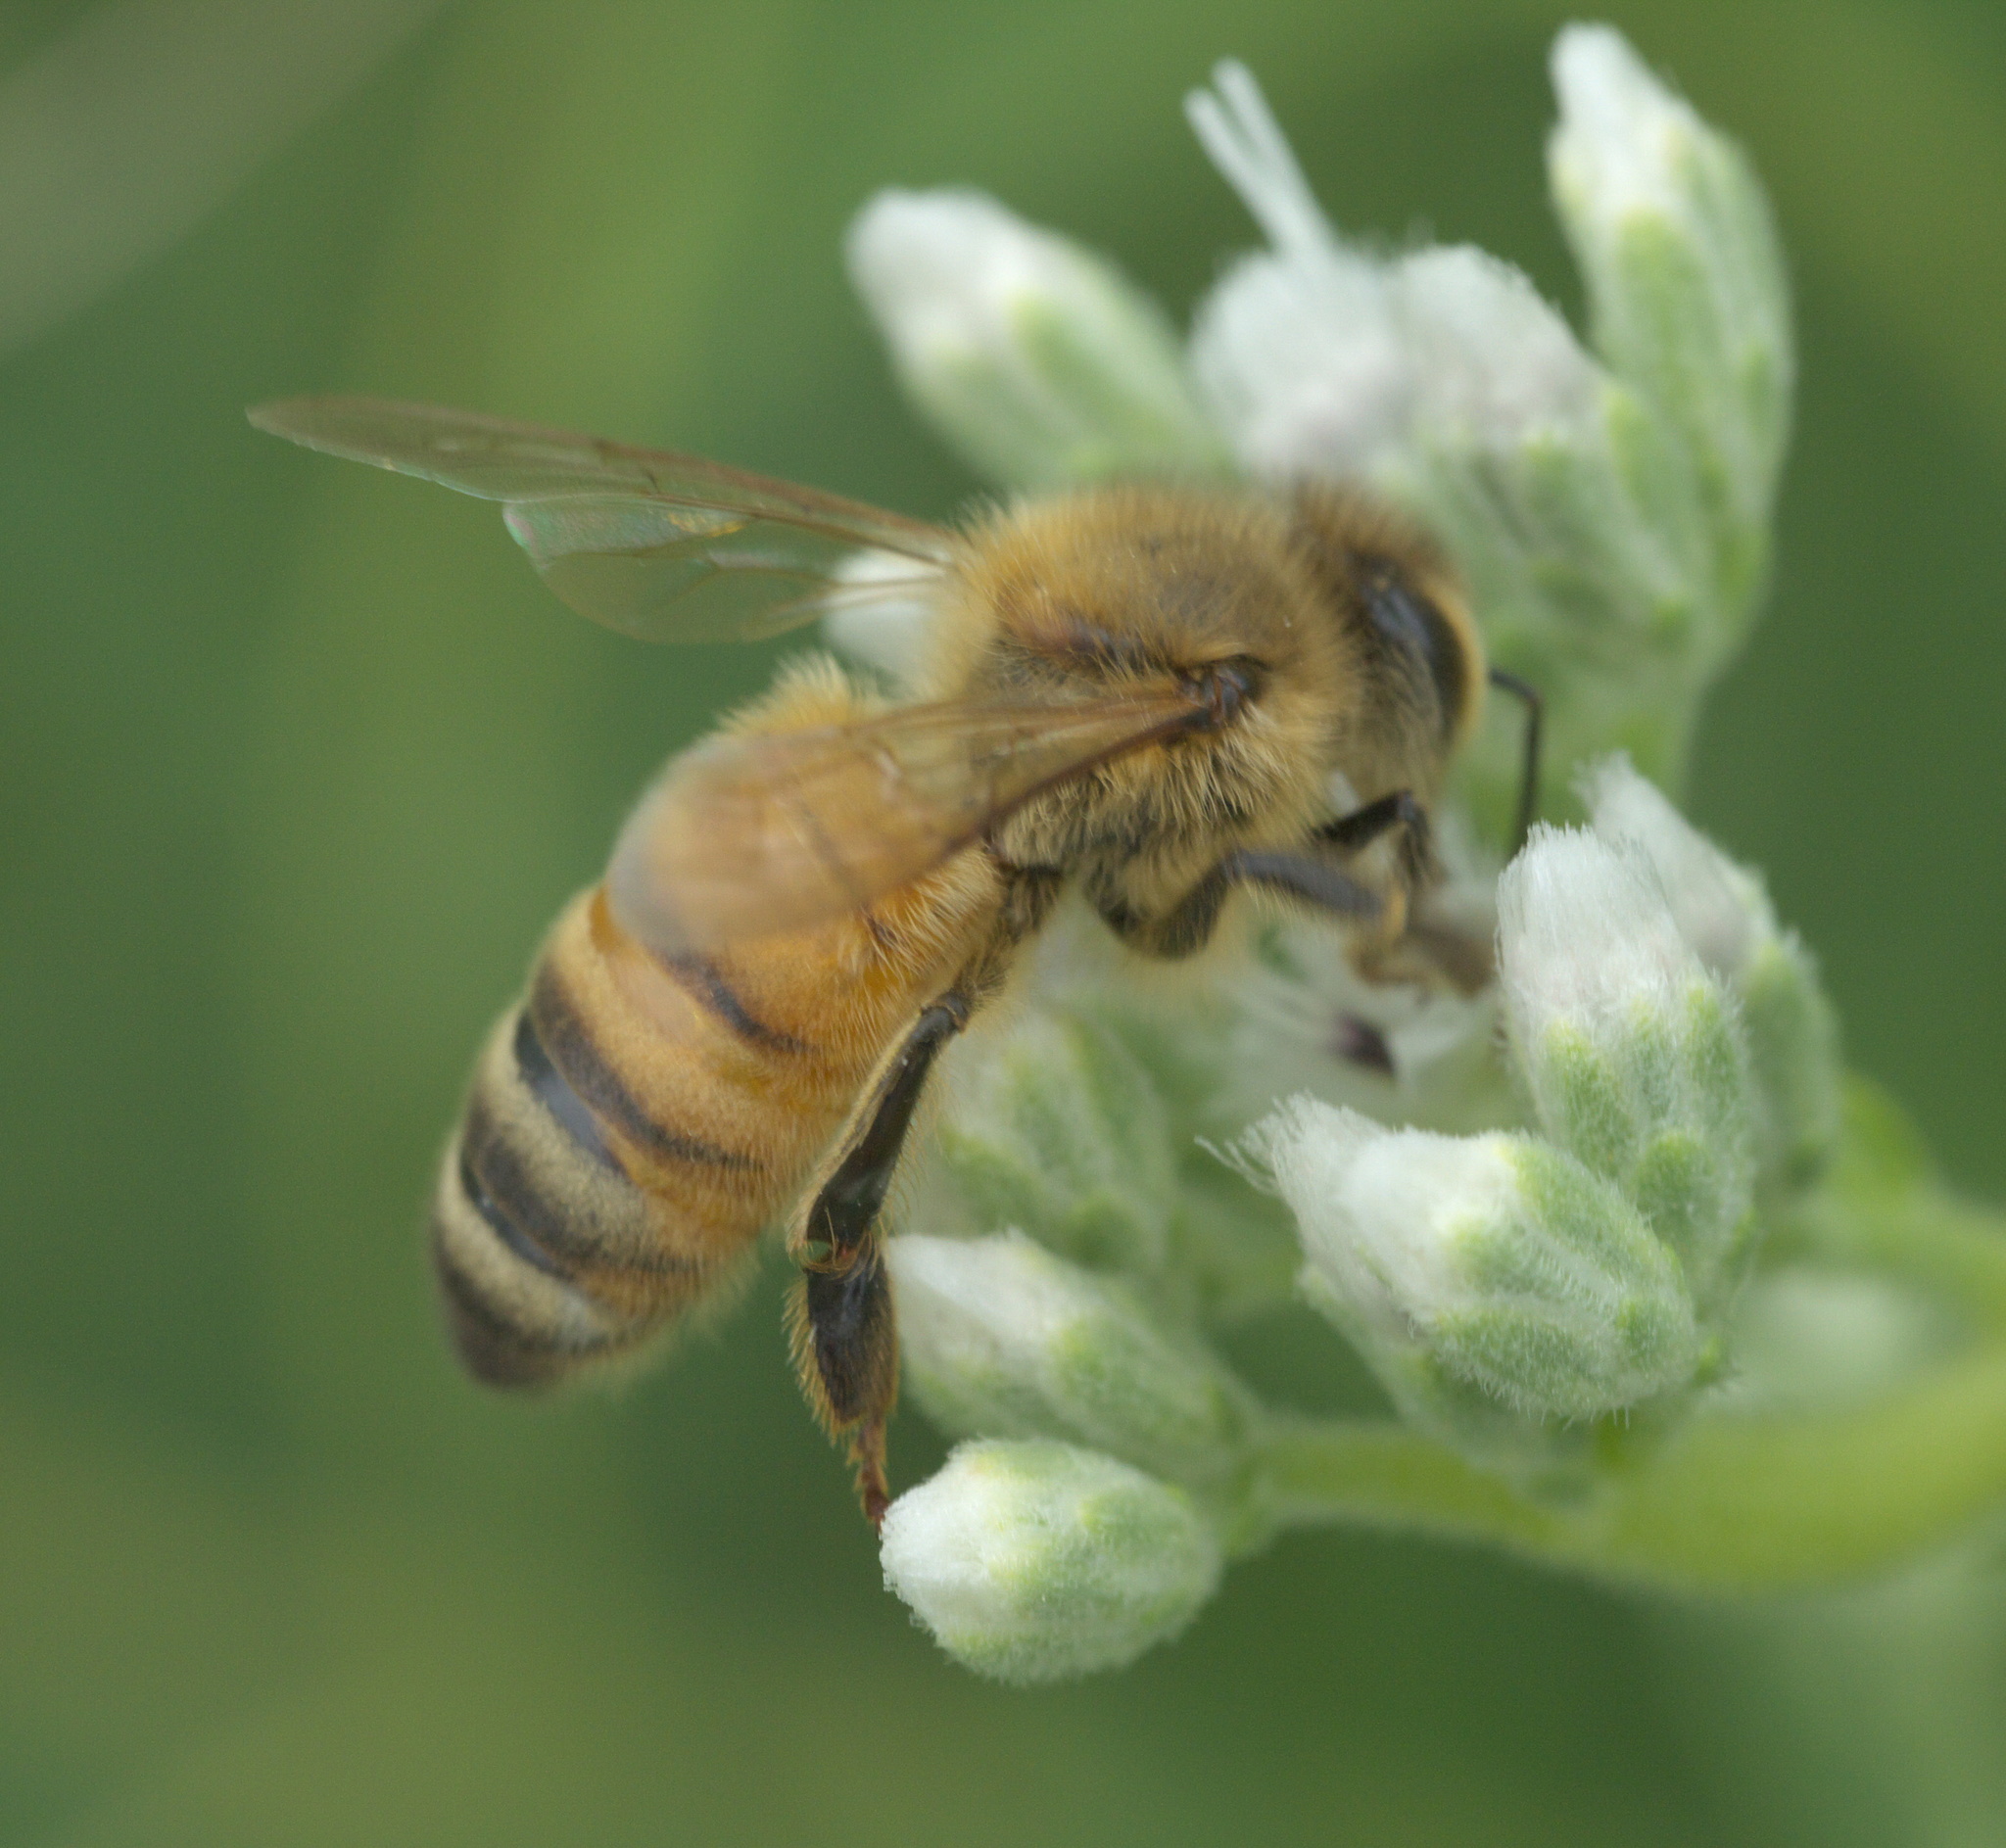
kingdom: Animalia
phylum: Arthropoda
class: Insecta
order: Hymenoptera
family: Apidae
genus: Apis
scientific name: Apis mellifera
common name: Honey bee
